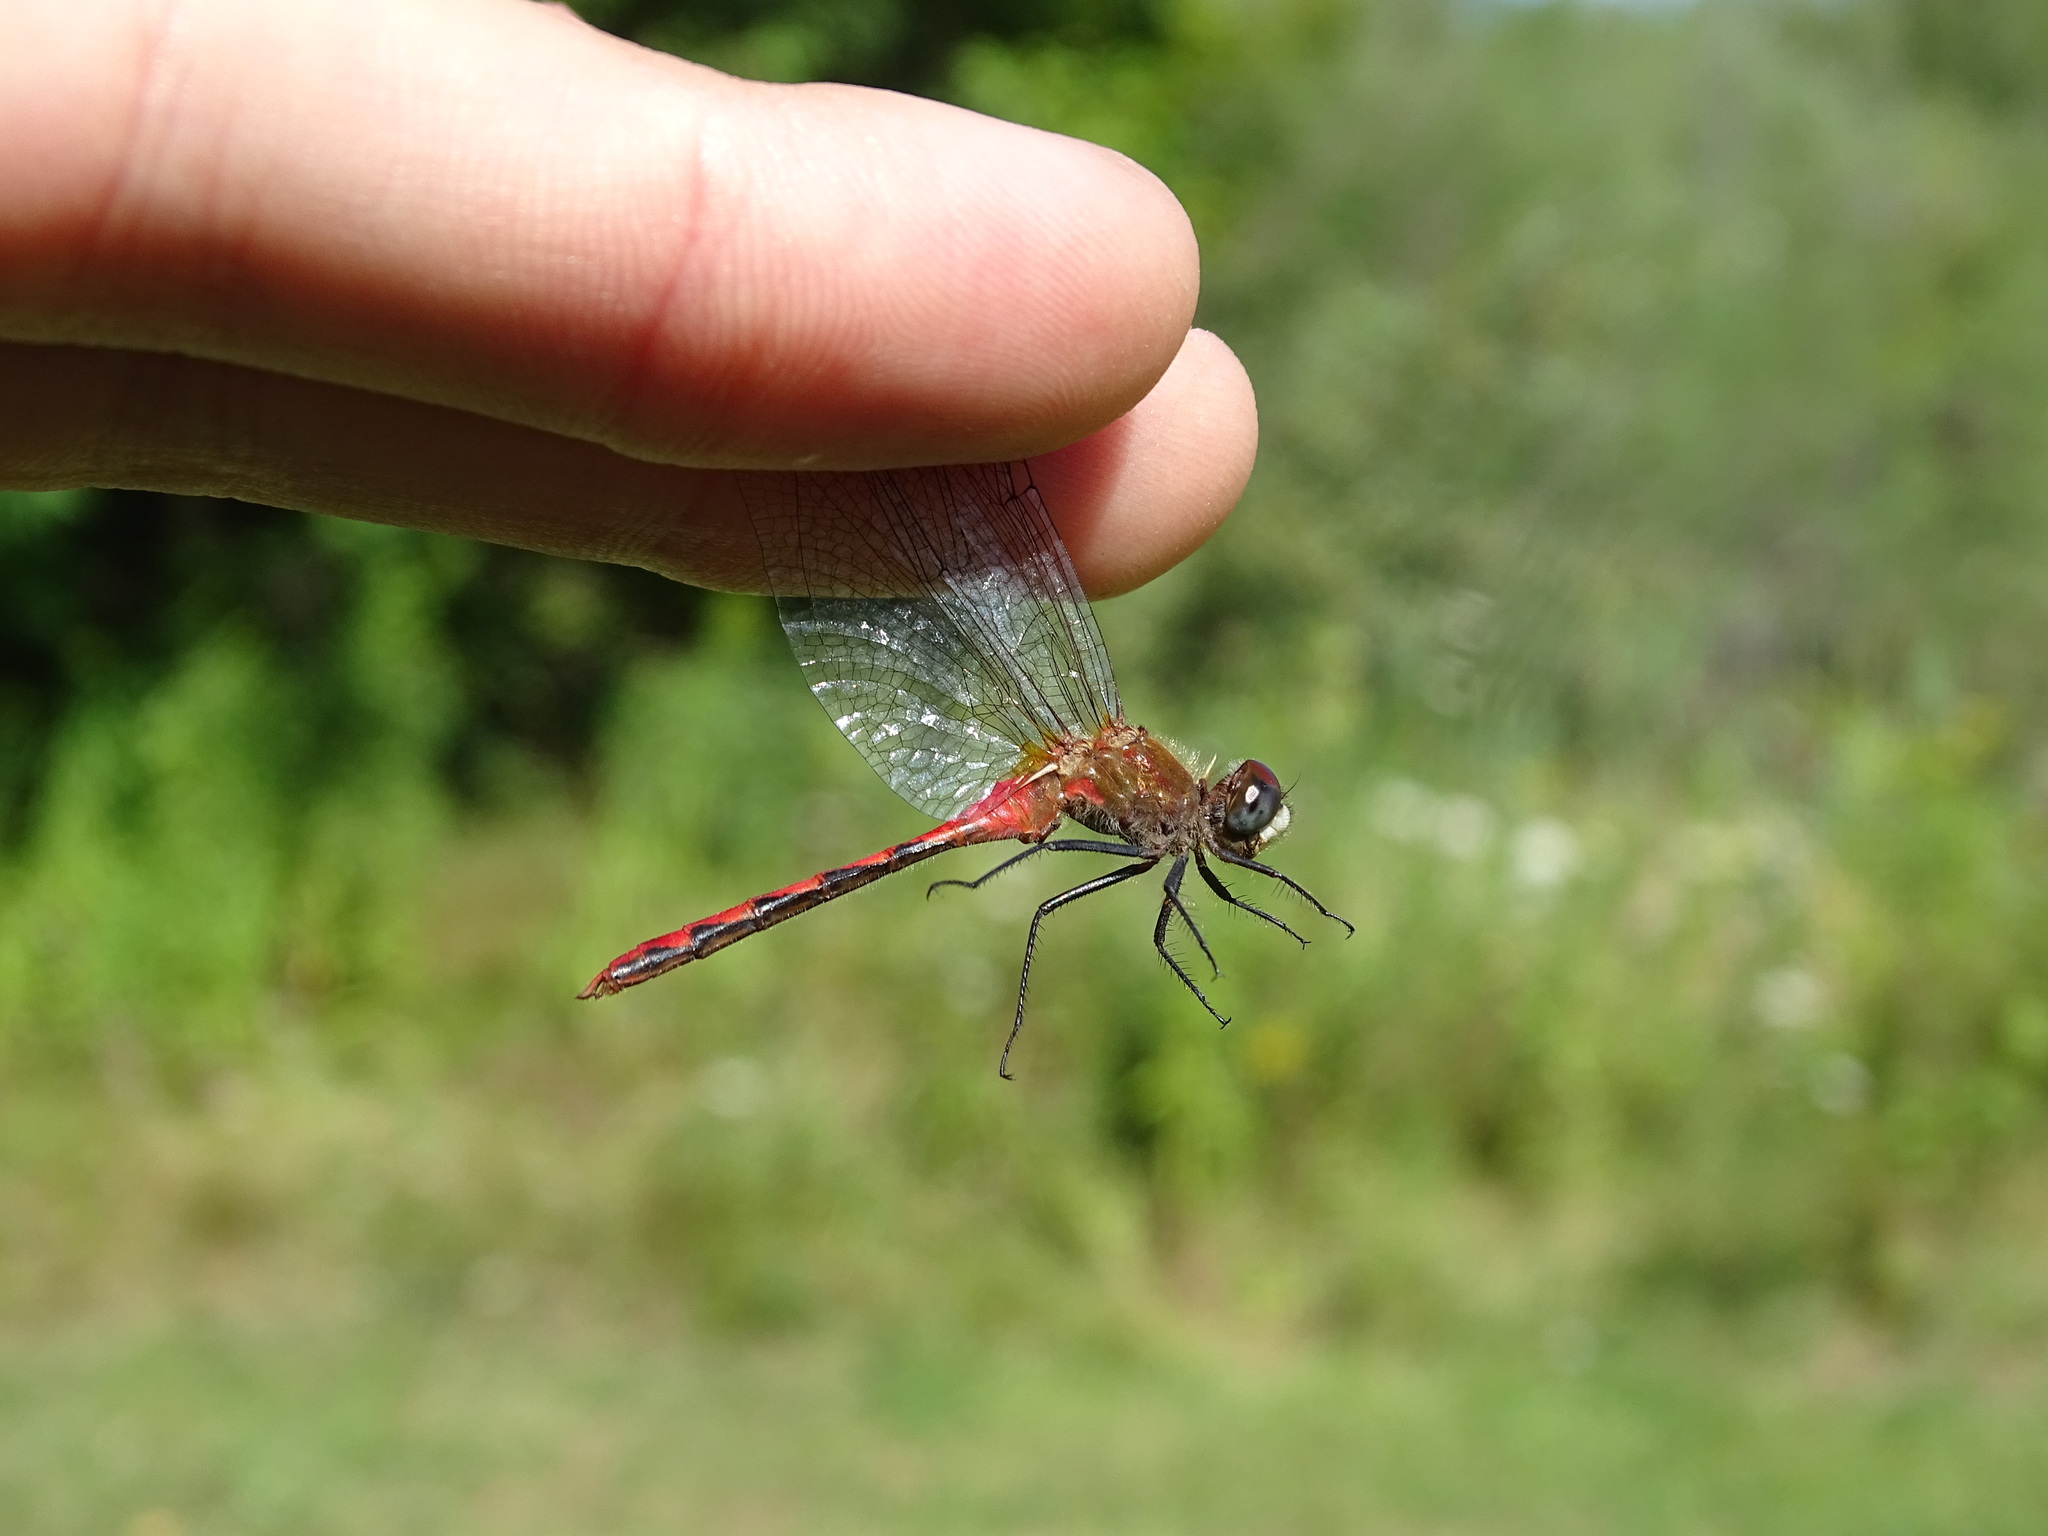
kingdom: Animalia
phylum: Arthropoda
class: Insecta
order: Odonata
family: Libellulidae
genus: Sympetrum
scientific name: Sympetrum obtrusum
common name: White-faced meadowhawk
